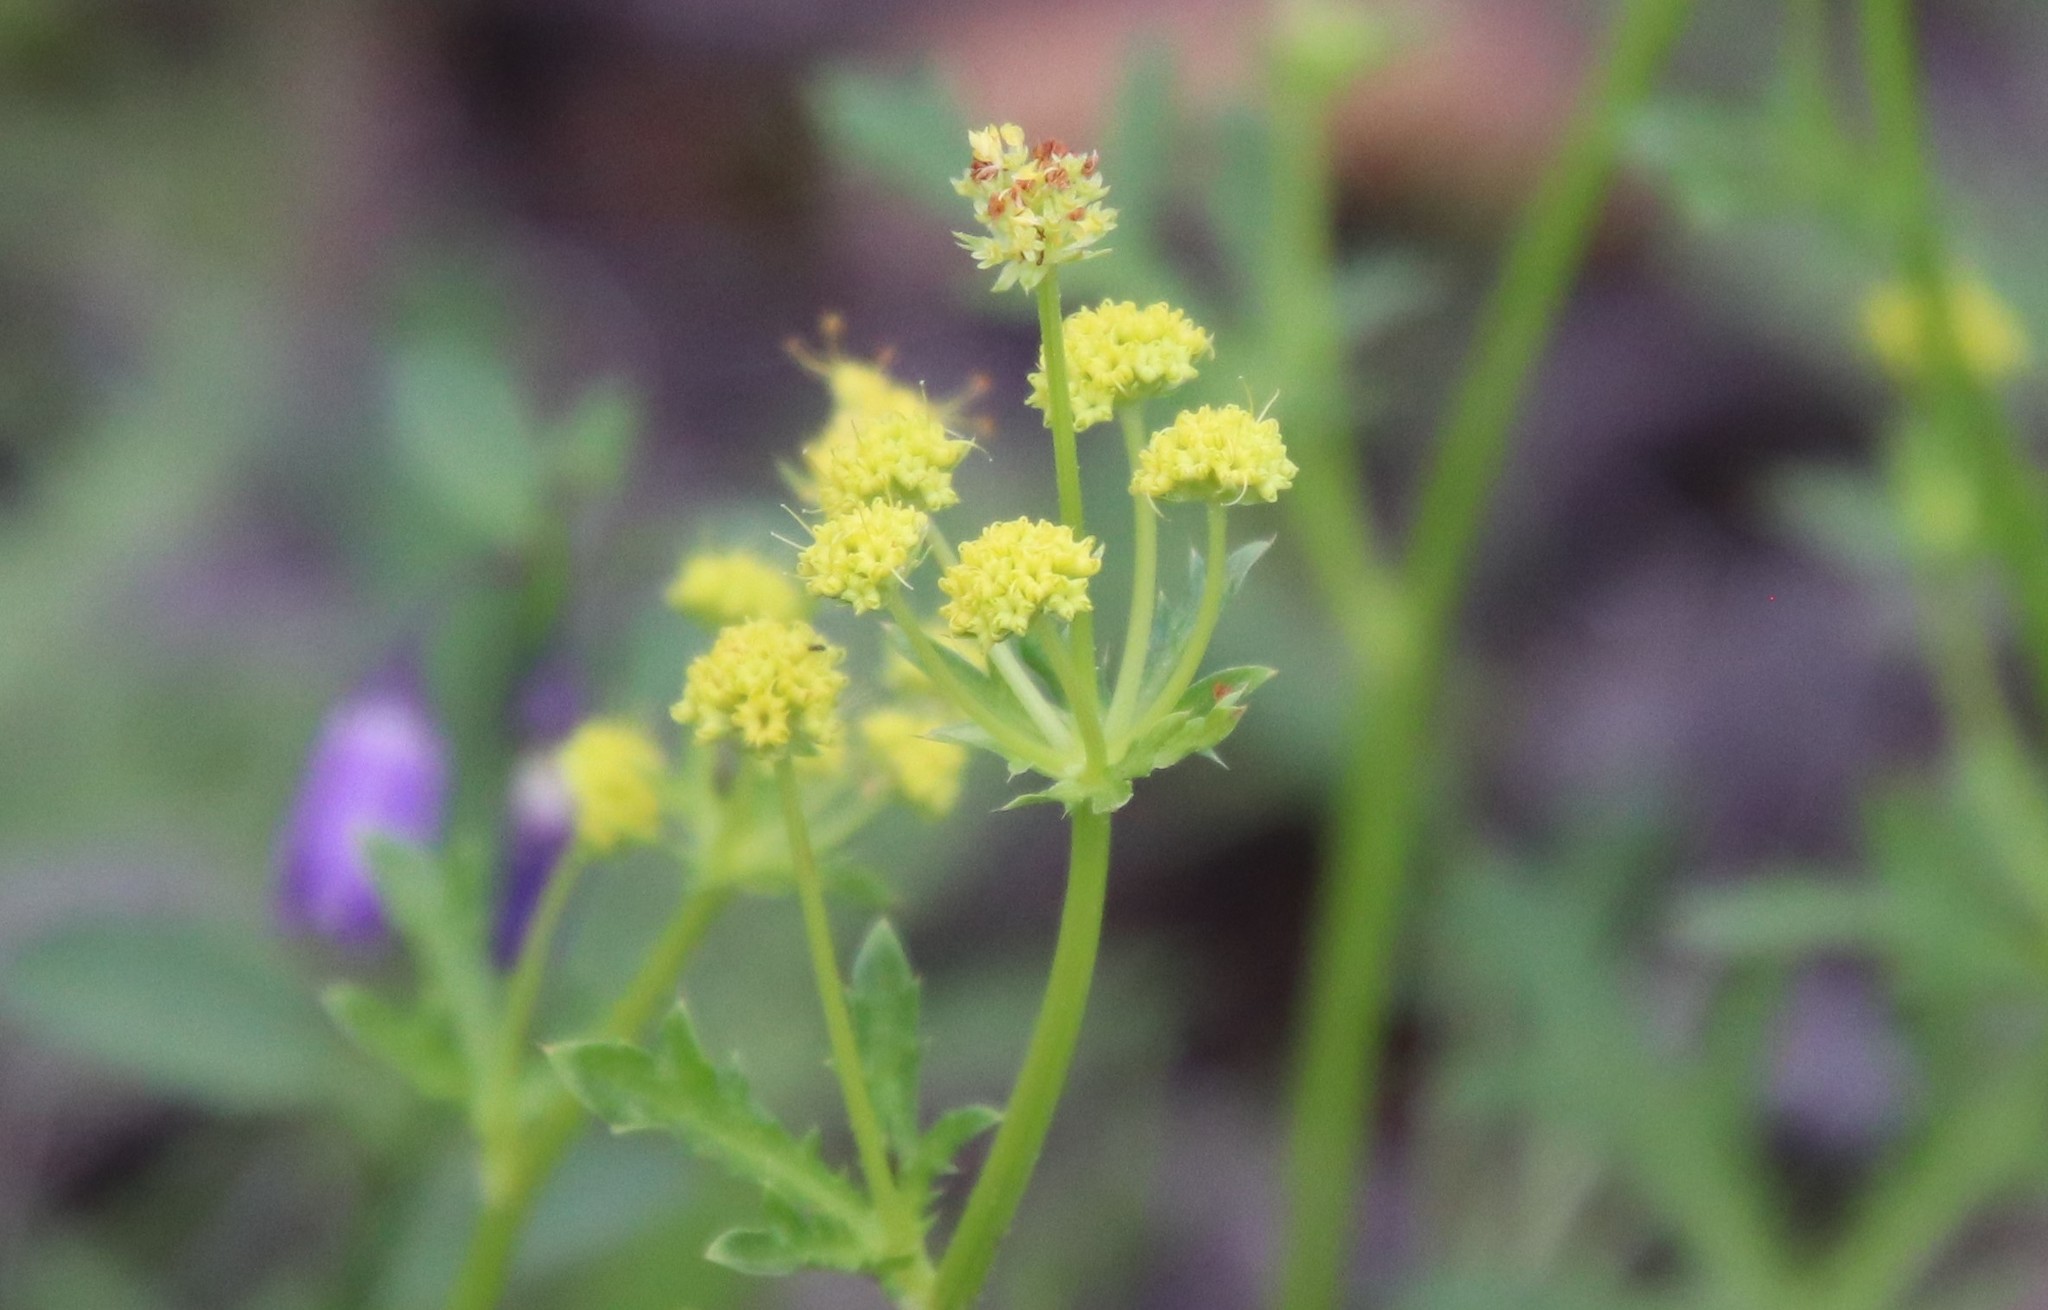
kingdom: Plantae
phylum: Tracheophyta
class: Magnoliopsida
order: Apiales
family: Apiaceae
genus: Sanicula
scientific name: Sanicula arguta
